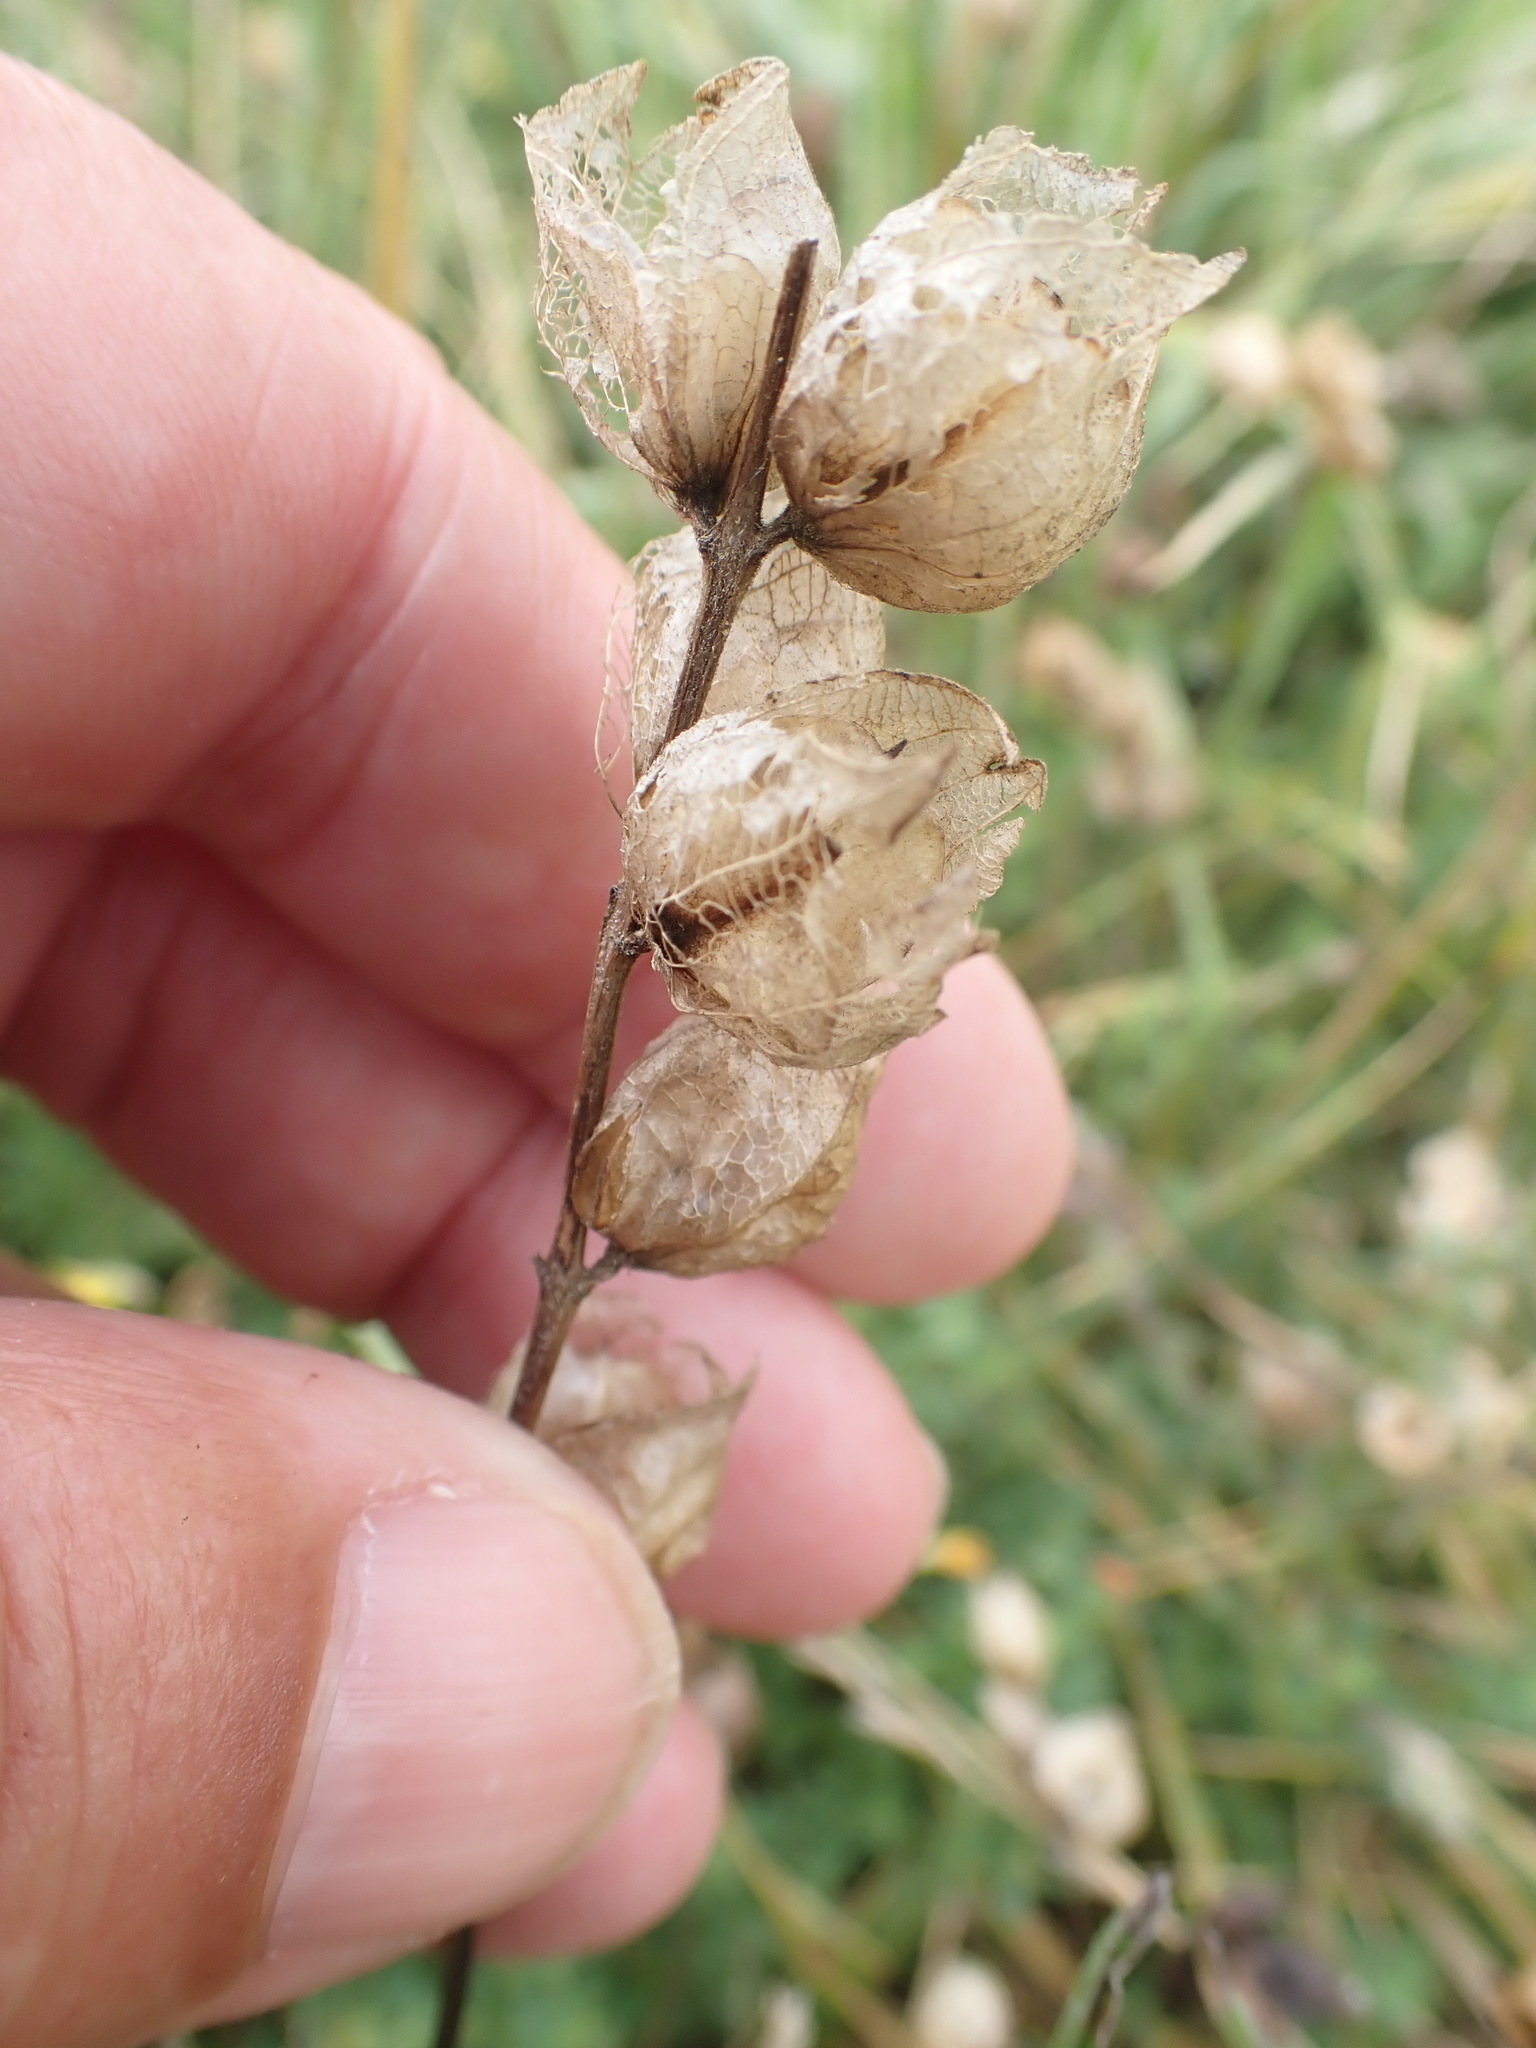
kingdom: Plantae
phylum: Tracheophyta
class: Magnoliopsida
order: Lamiales
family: Orobanchaceae
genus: Rhinanthus
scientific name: Rhinanthus minor
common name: Yellow-rattle
